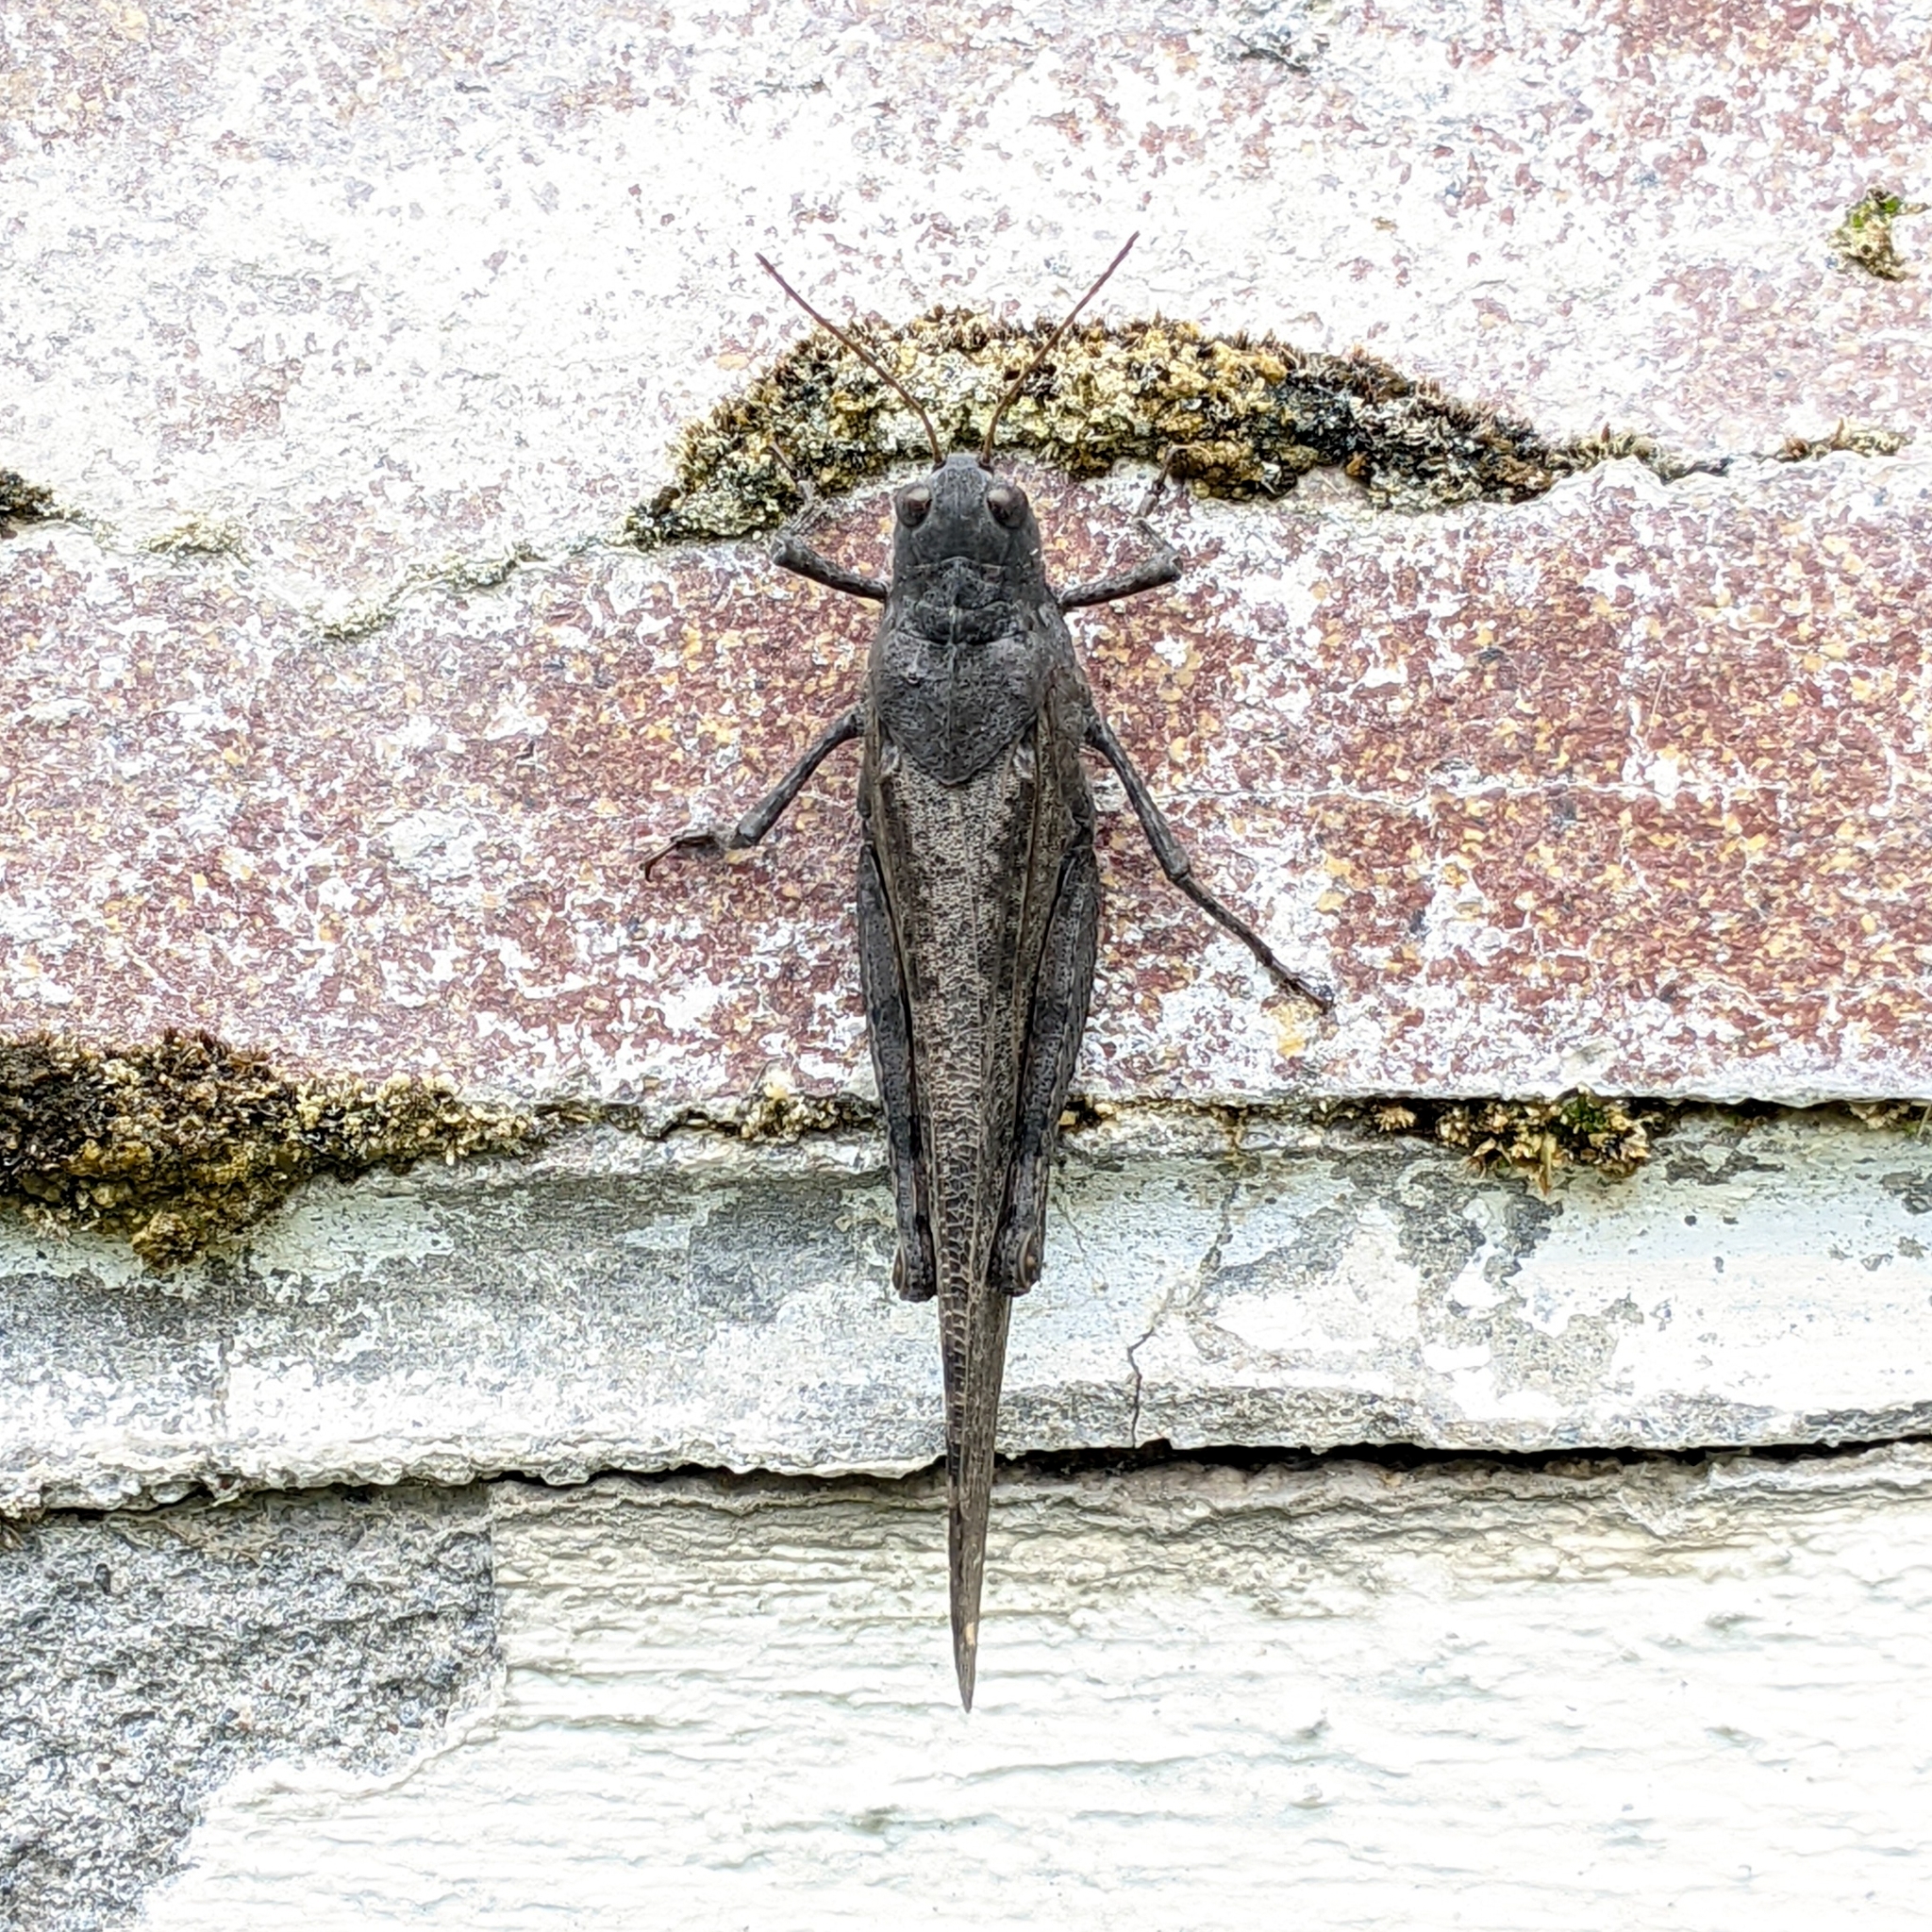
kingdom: Animalia
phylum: Arthropoda
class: Insecta
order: Orthoptera
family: Acrididae
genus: Dissosteira
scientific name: Dissosteira carolina
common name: Carolina grasshopper
